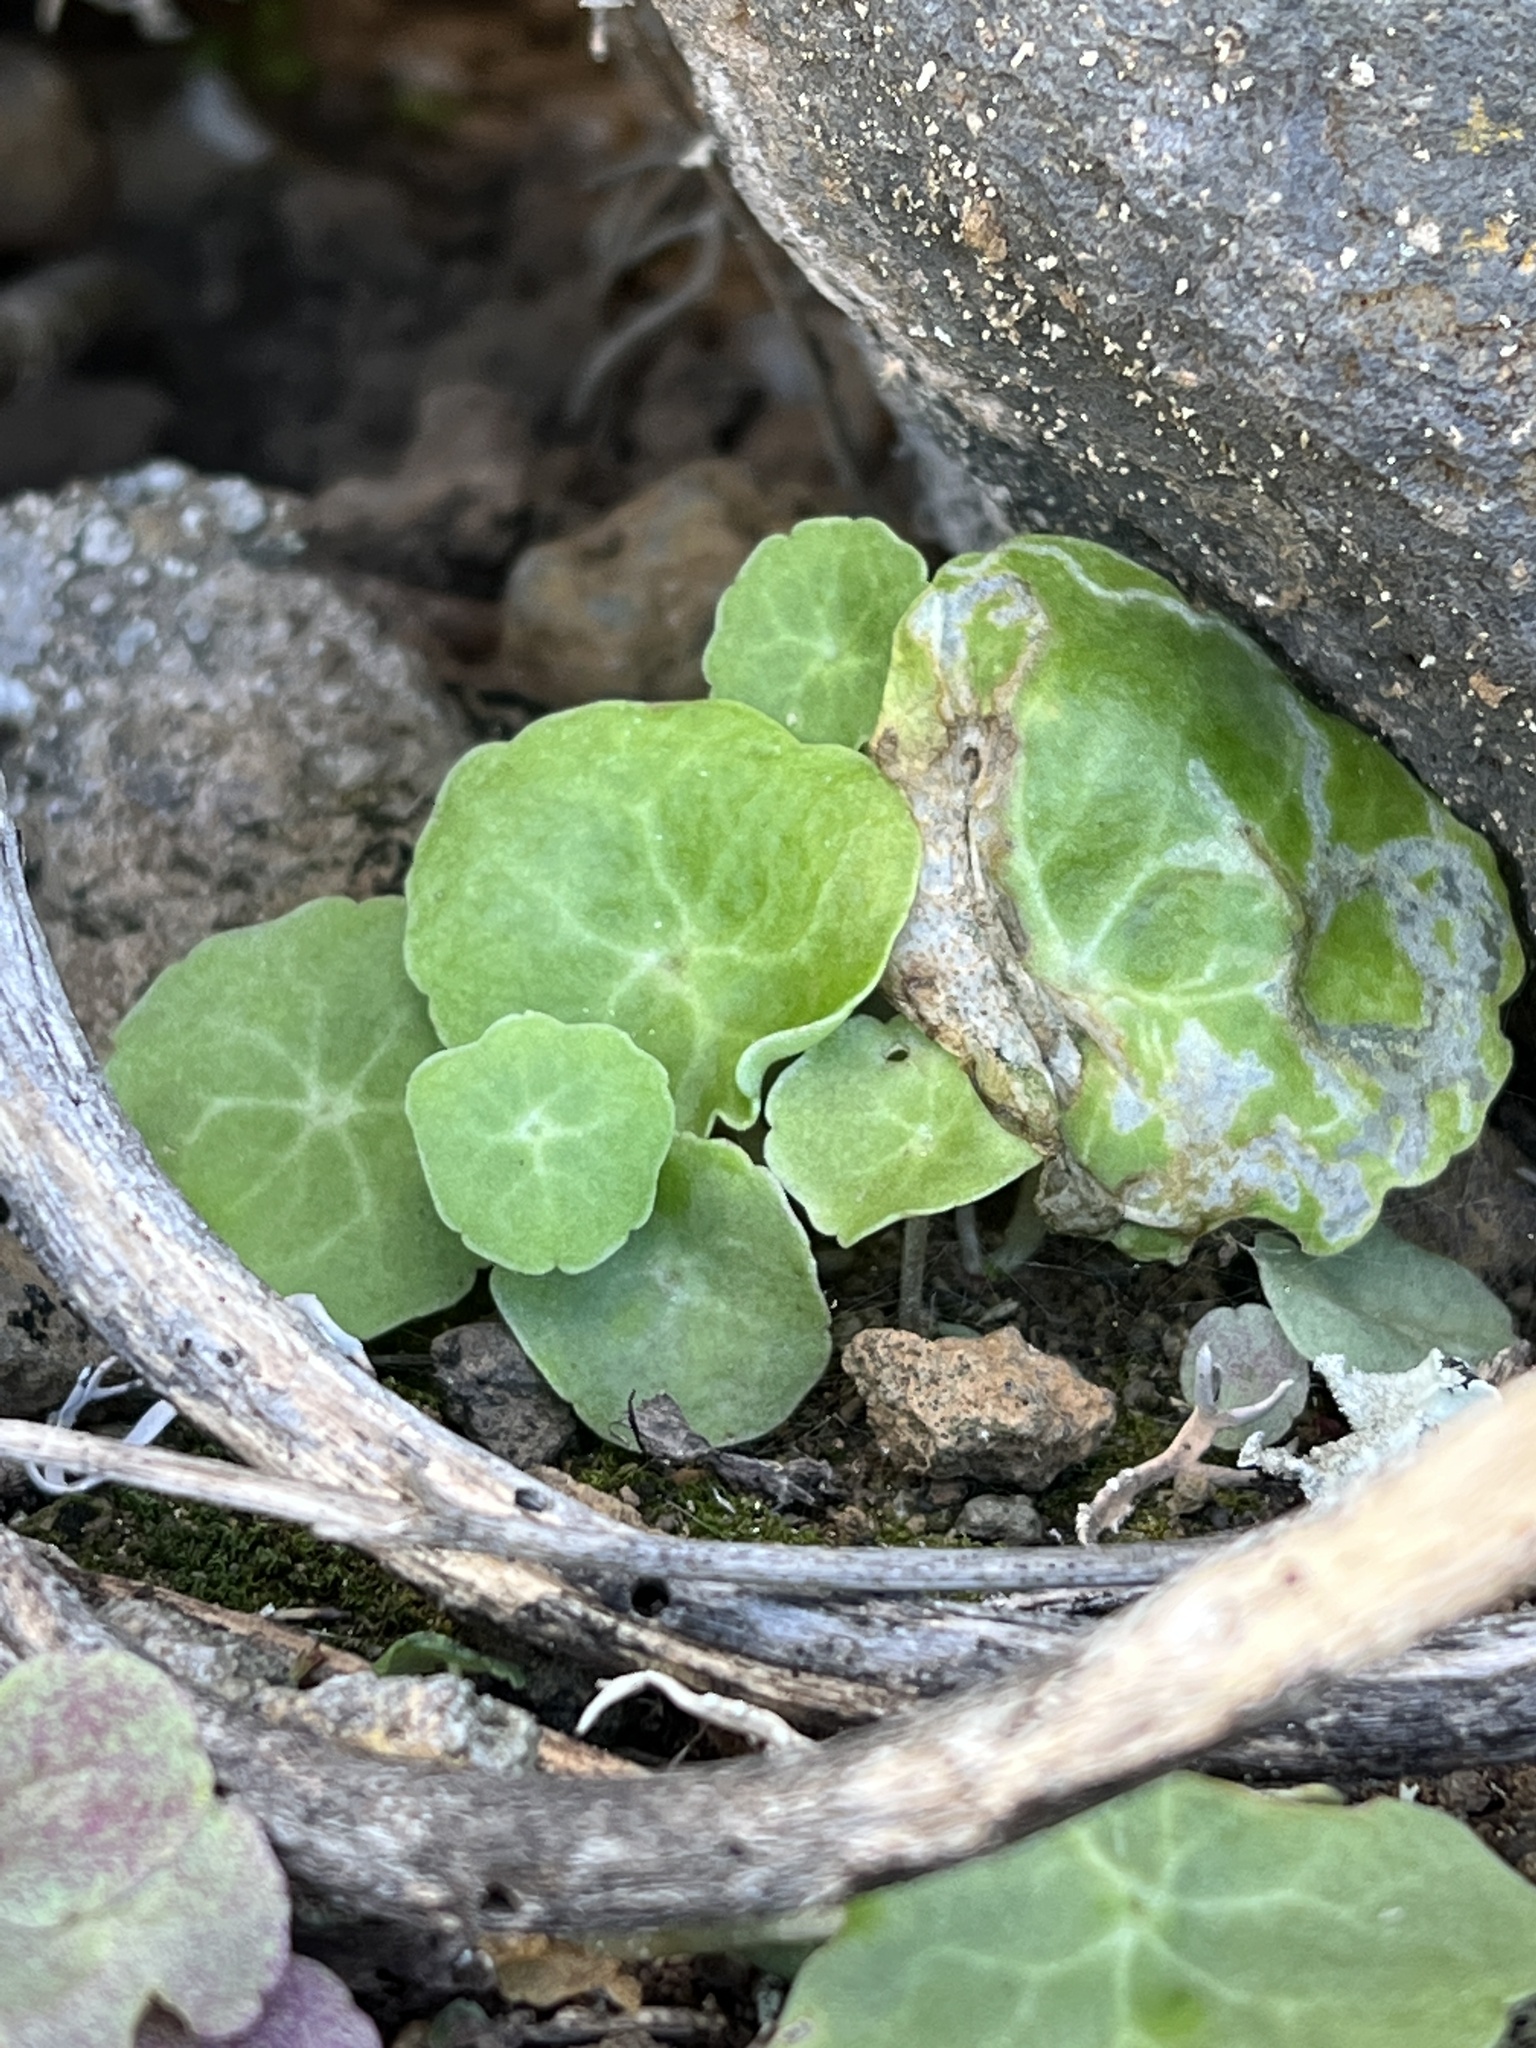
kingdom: Plantae
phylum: Tracheophyta
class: Magnoliopsida
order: Saxifragales
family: Crassulaceae
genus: Umbilicus
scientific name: Umbilicus horizontalis
